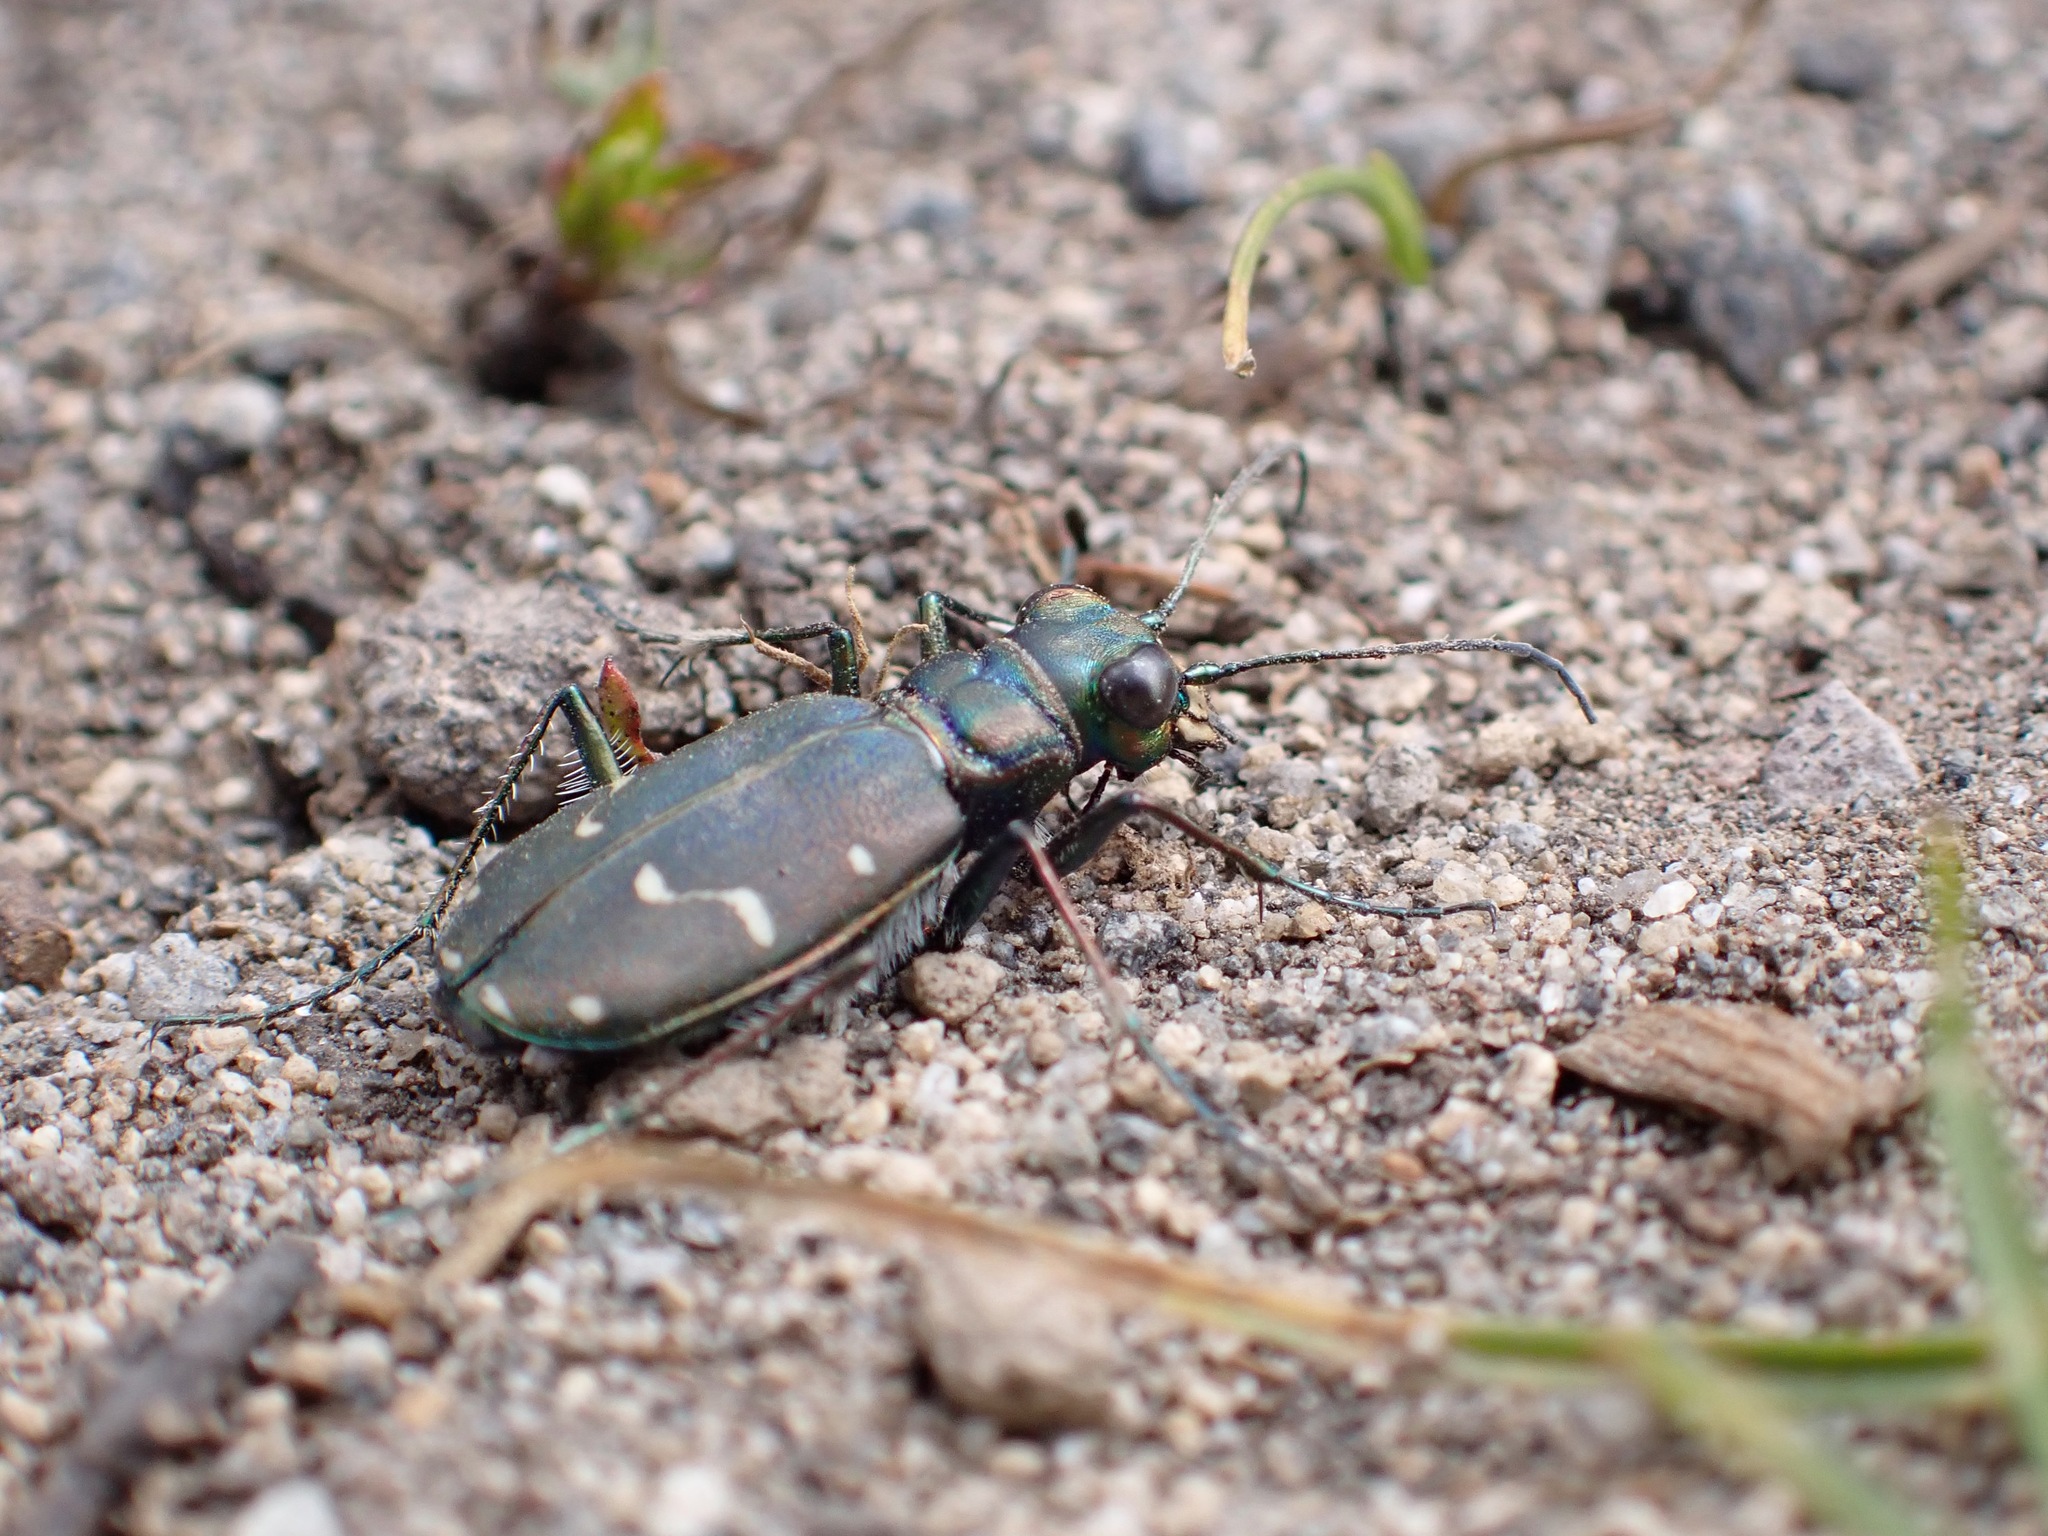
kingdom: Animalia
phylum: Arthropoda
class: Insecta
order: Coleoptera
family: Carabidae
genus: Cicindela
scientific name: Cicindela depressula
